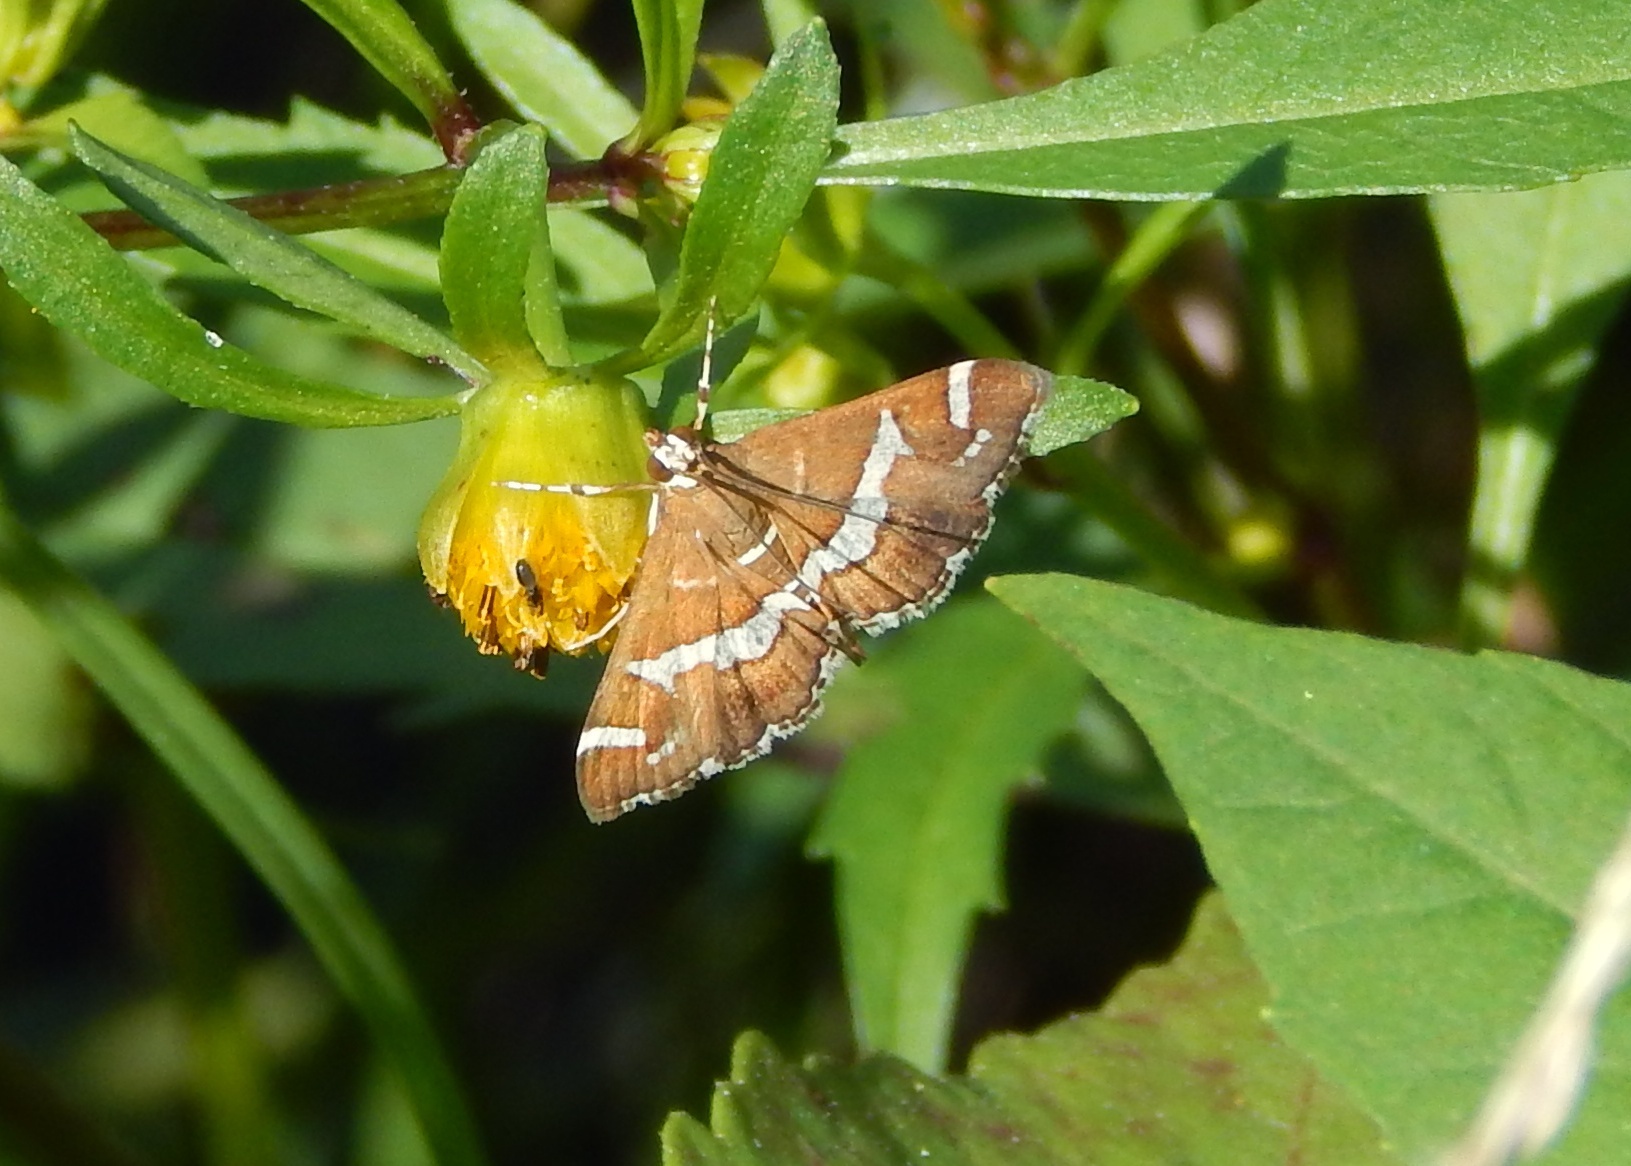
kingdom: Animalia
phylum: Arthropoda
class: Insecta
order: Lepidoptera
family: Crambidae
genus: Spoladea
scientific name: Spoladea recurvalis
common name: Beet webworm moth
